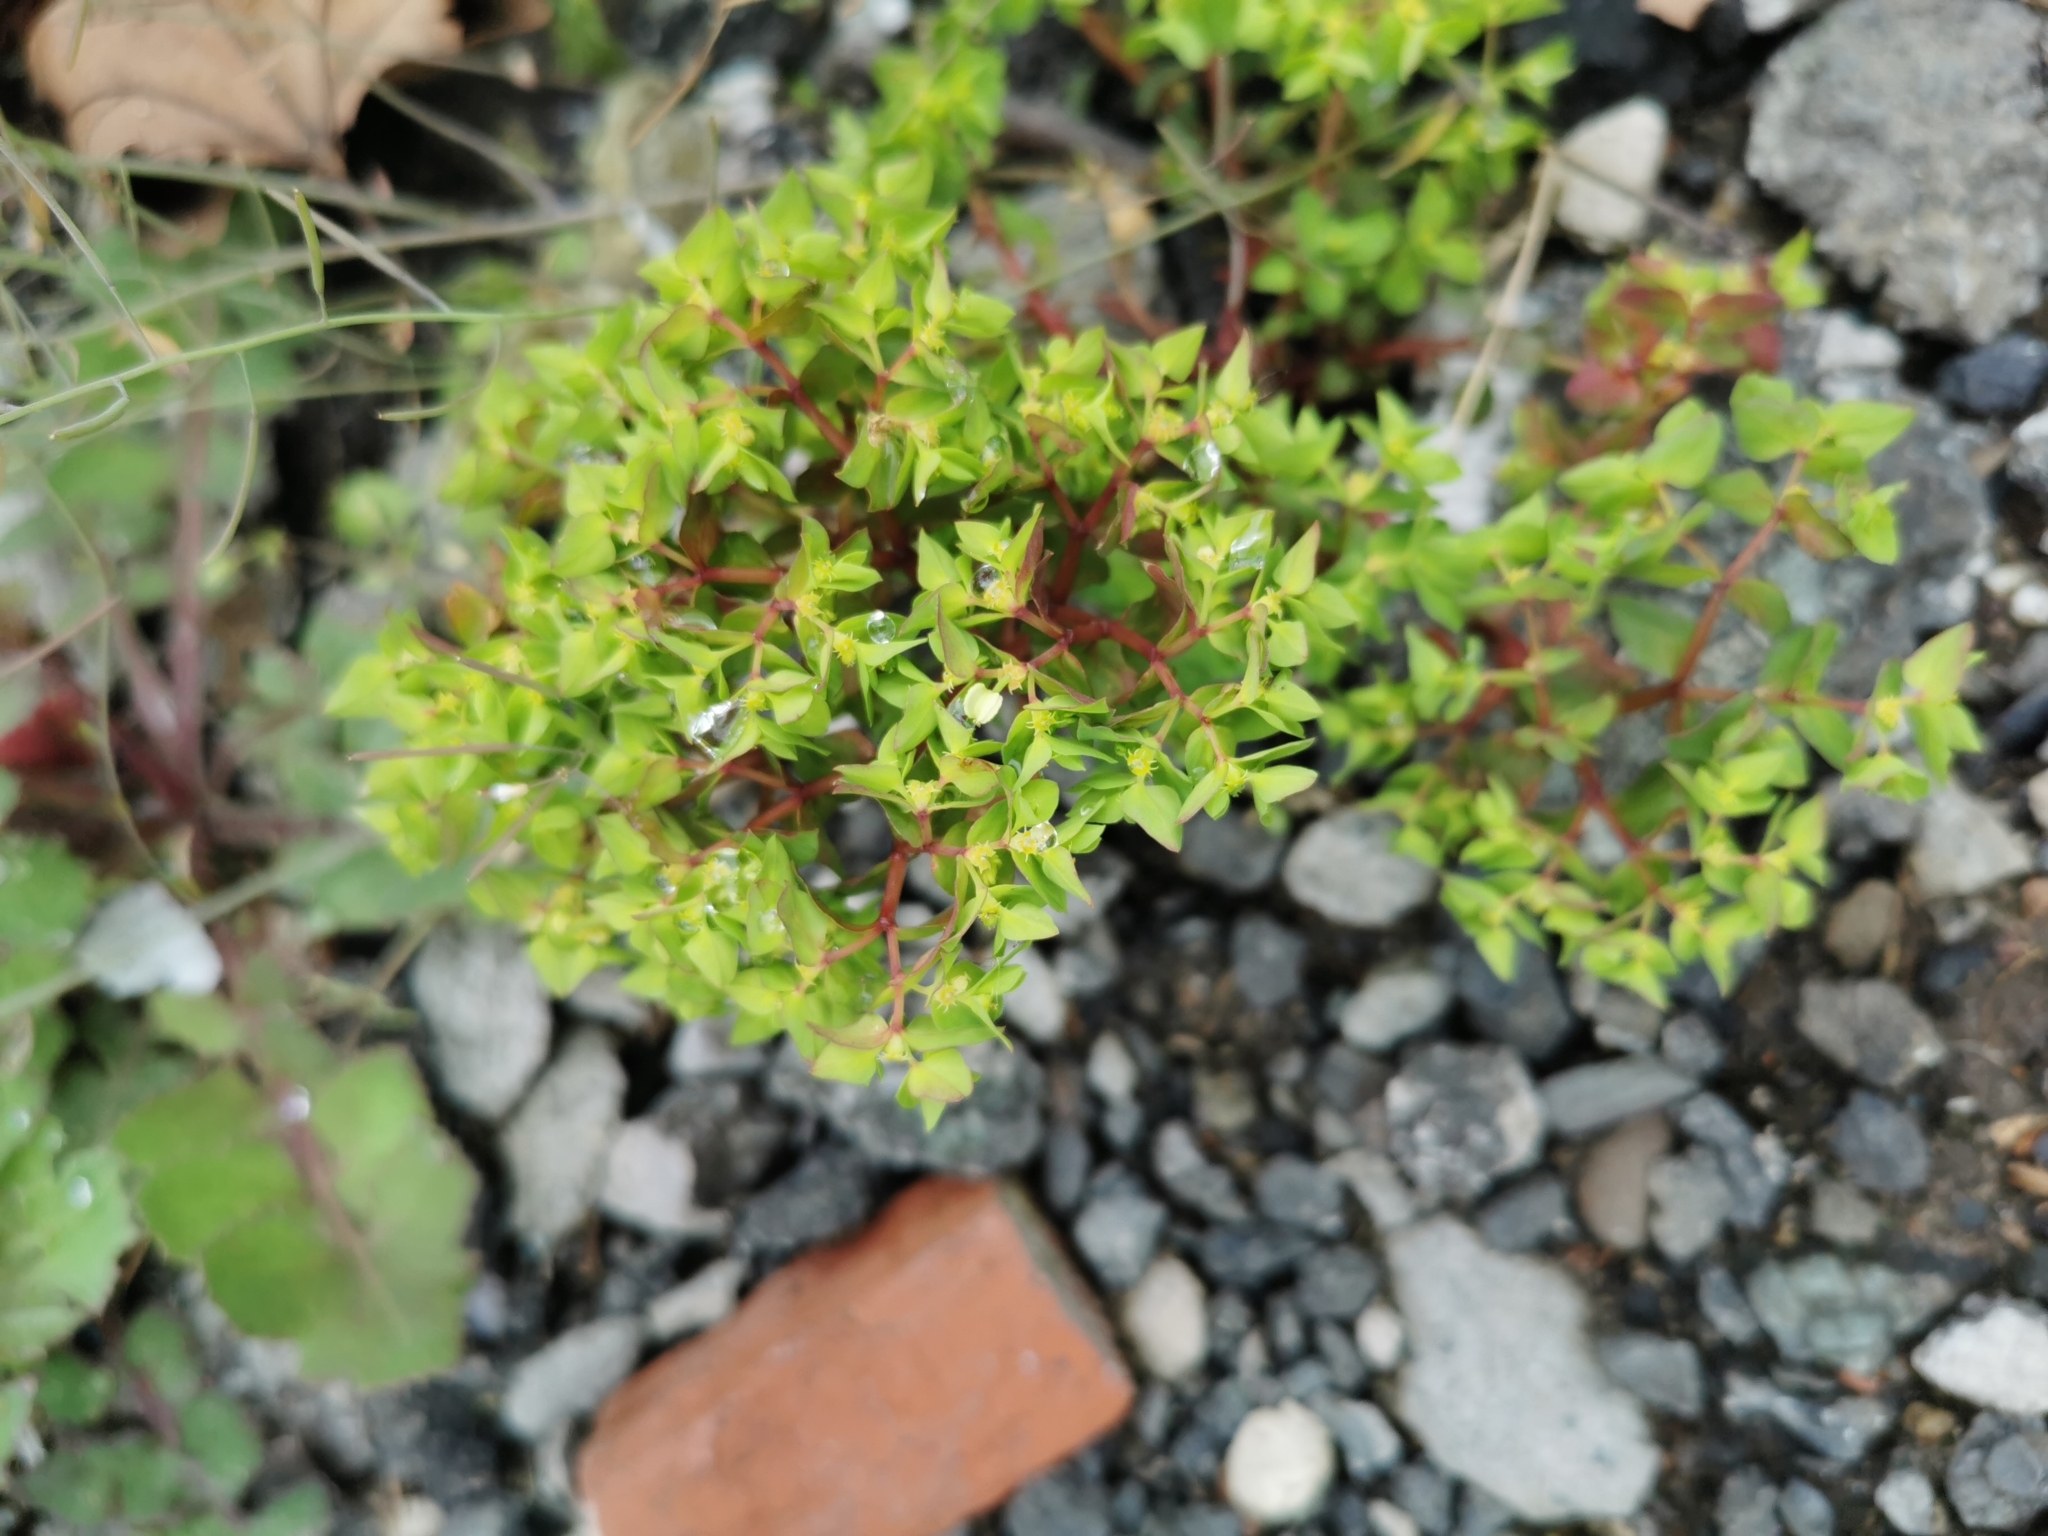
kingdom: Plantae
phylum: Tracheophyta
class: Magnoliopsida
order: Malpighiales
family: Euphorbiaceae
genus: Euphorbia
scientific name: Euphorbia peplus
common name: Petty spurge
